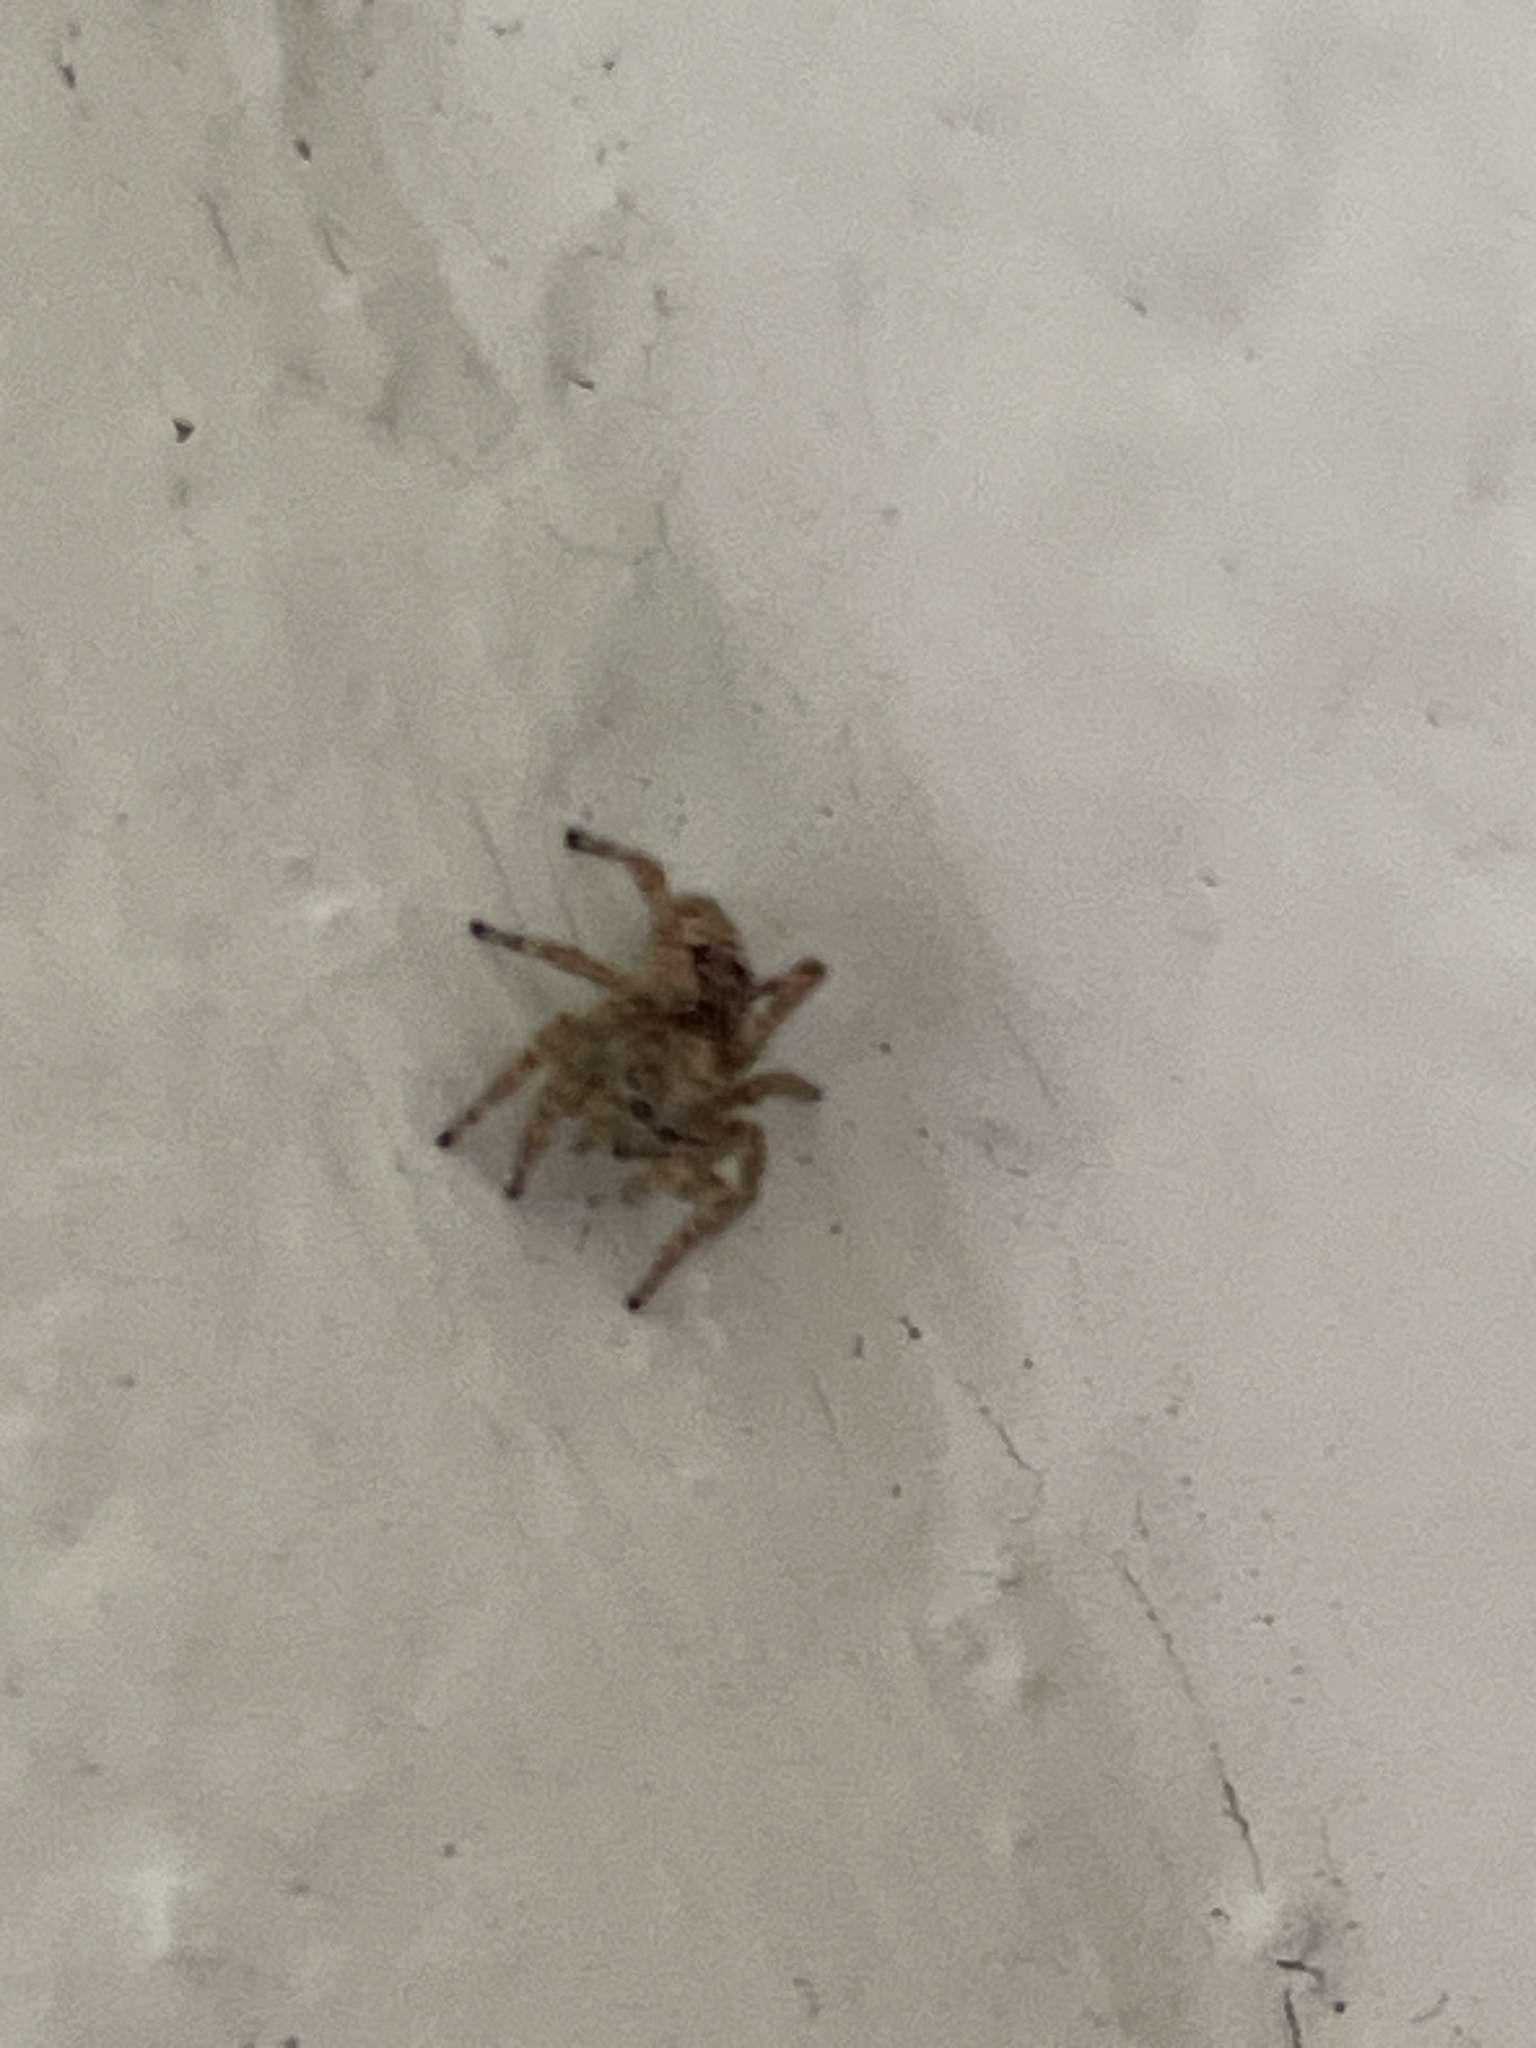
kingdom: Animalia
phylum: Arthropoda
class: Arachnida
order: Araneae
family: Salticidae
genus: Attulus
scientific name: Attulus fasciger
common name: Asiatic wall jumping spider
